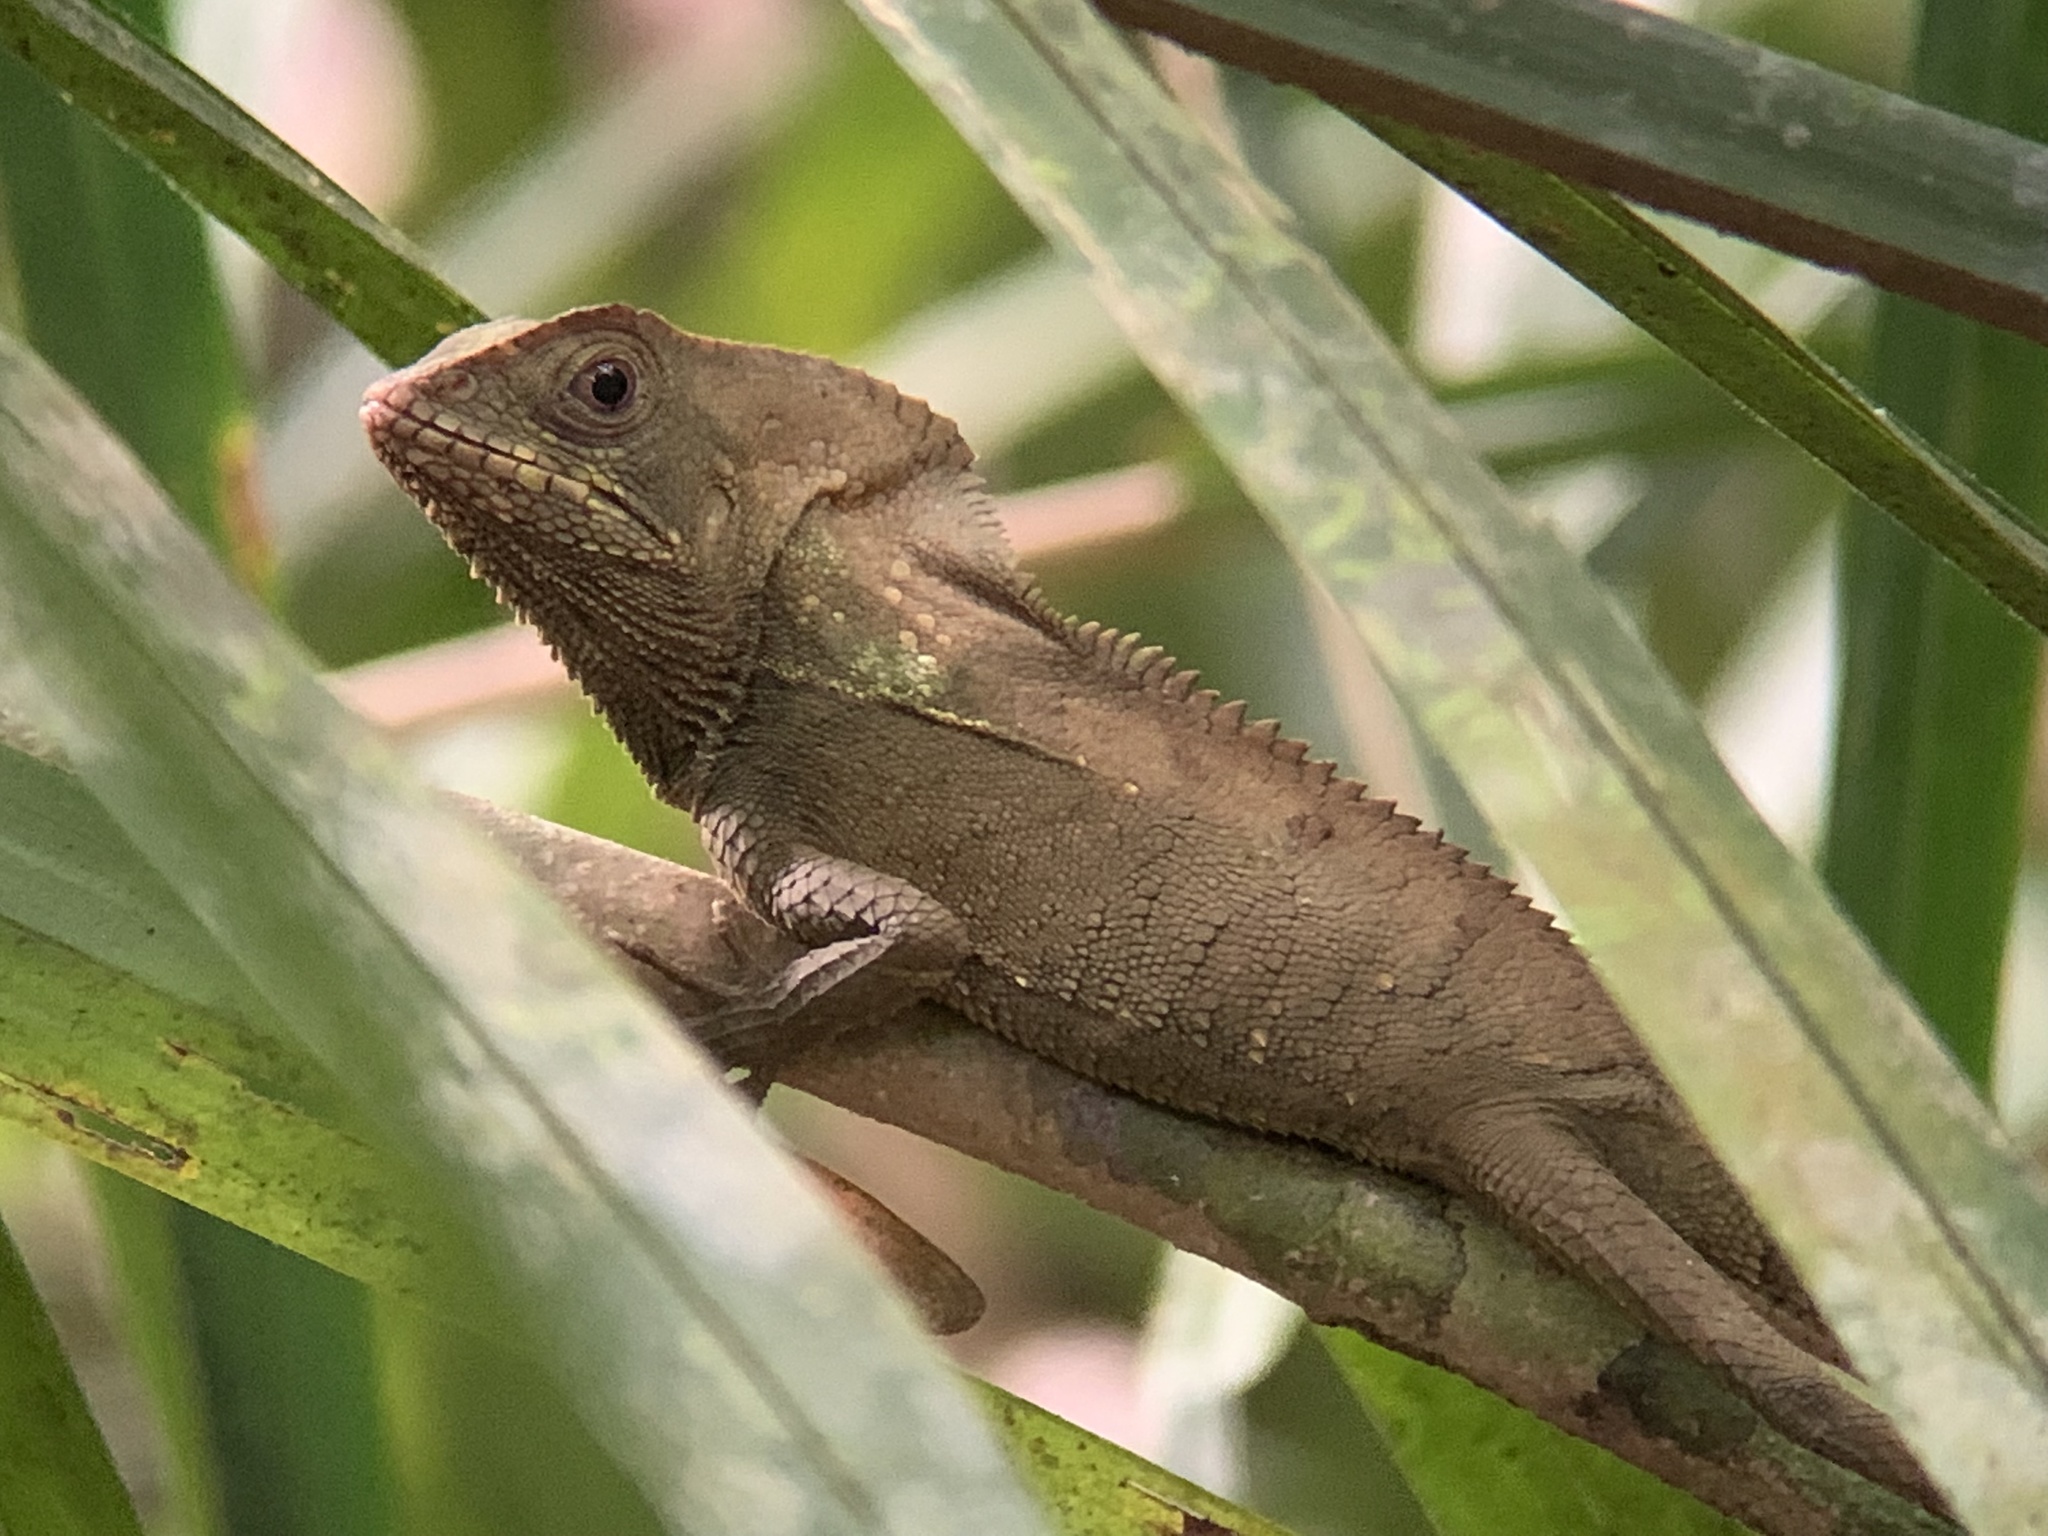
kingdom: Animalia
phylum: Chordata
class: Squamata
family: Corytophanidae
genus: Corytophanes
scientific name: Corytophanes cristatus
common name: Smooth helmeted iguana
